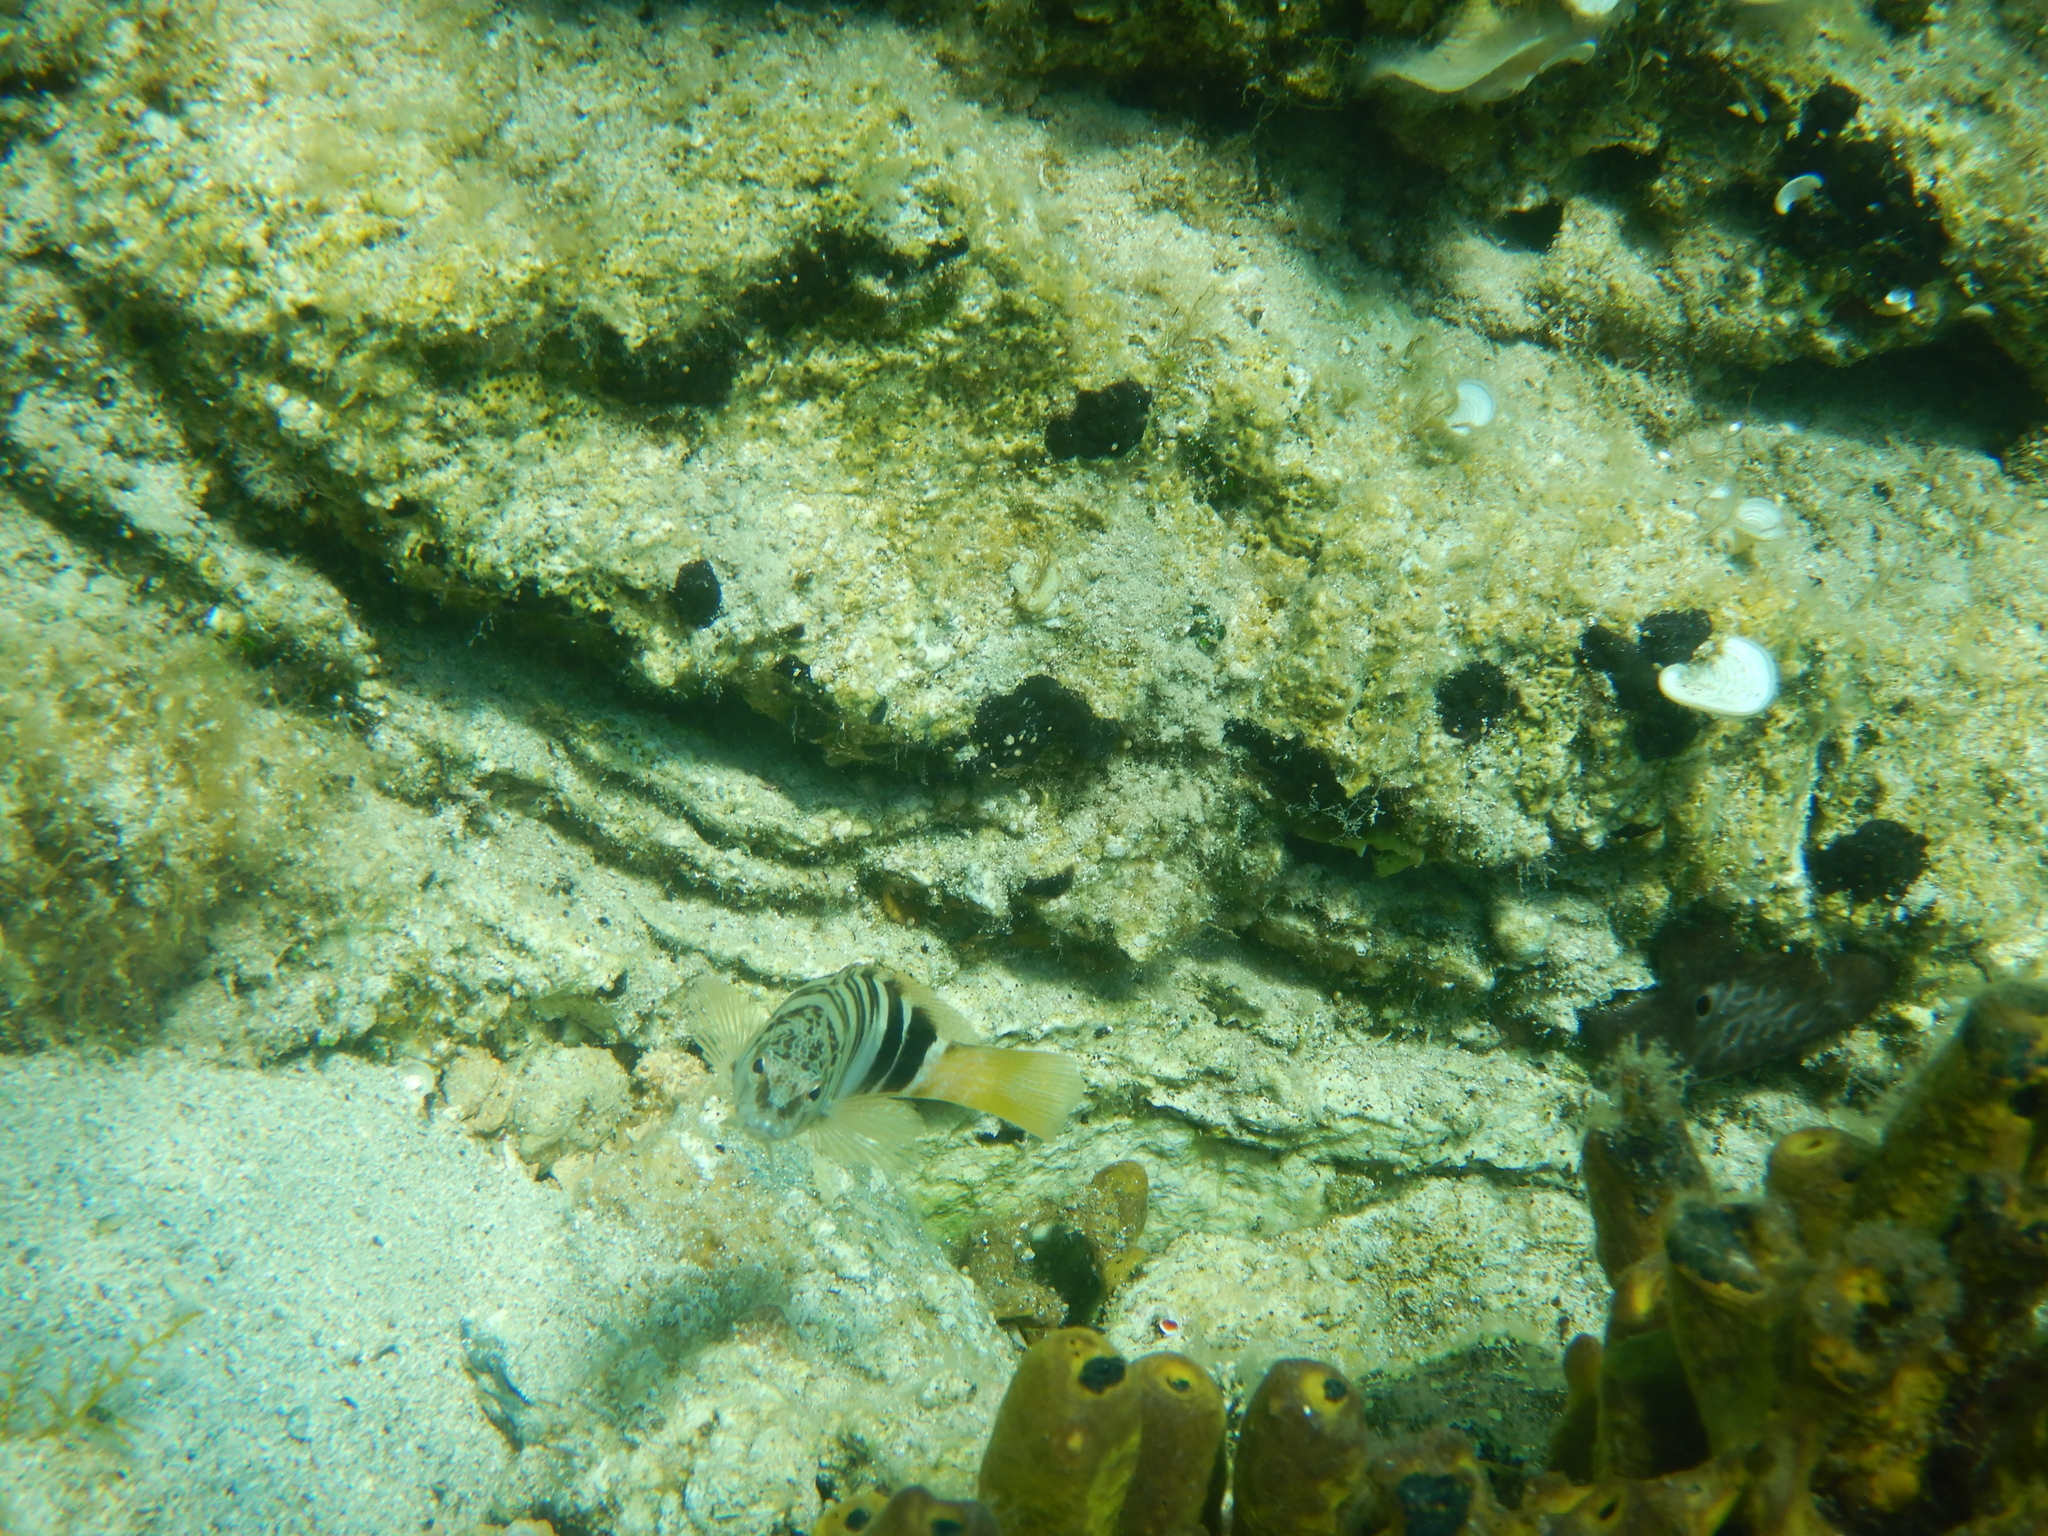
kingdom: Animalia
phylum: Chordata
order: Perciformes
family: Serranidae
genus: Serranus
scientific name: Serranus scriba
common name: Painted comber
